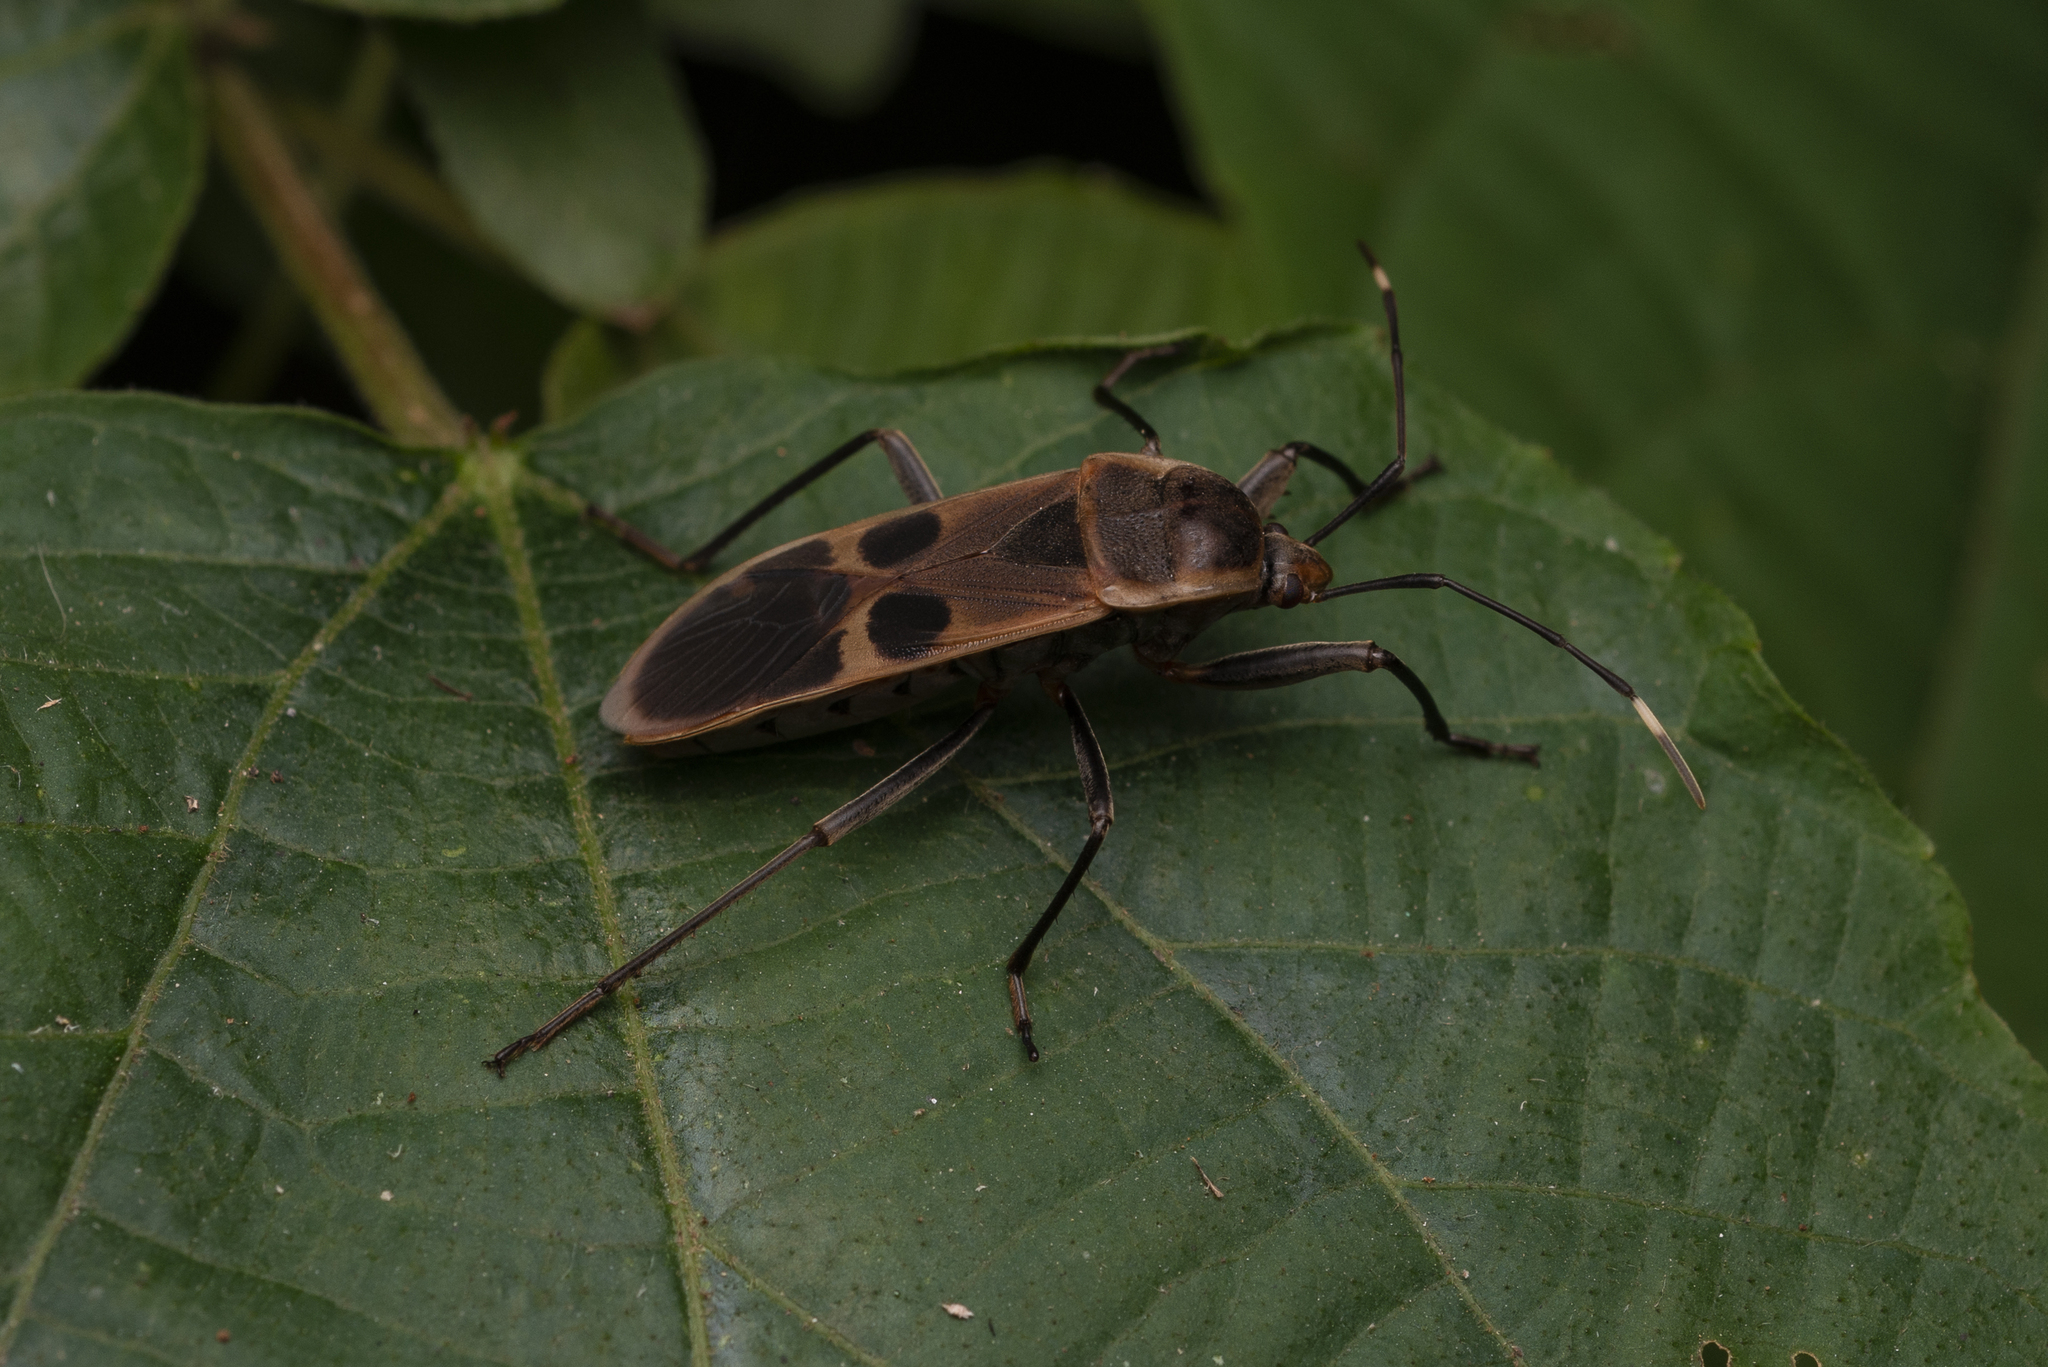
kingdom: Animalia
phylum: Arthropoda
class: Insecta
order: Hemiptera
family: Largidae
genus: Physopelta
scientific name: Physopelta gutta
